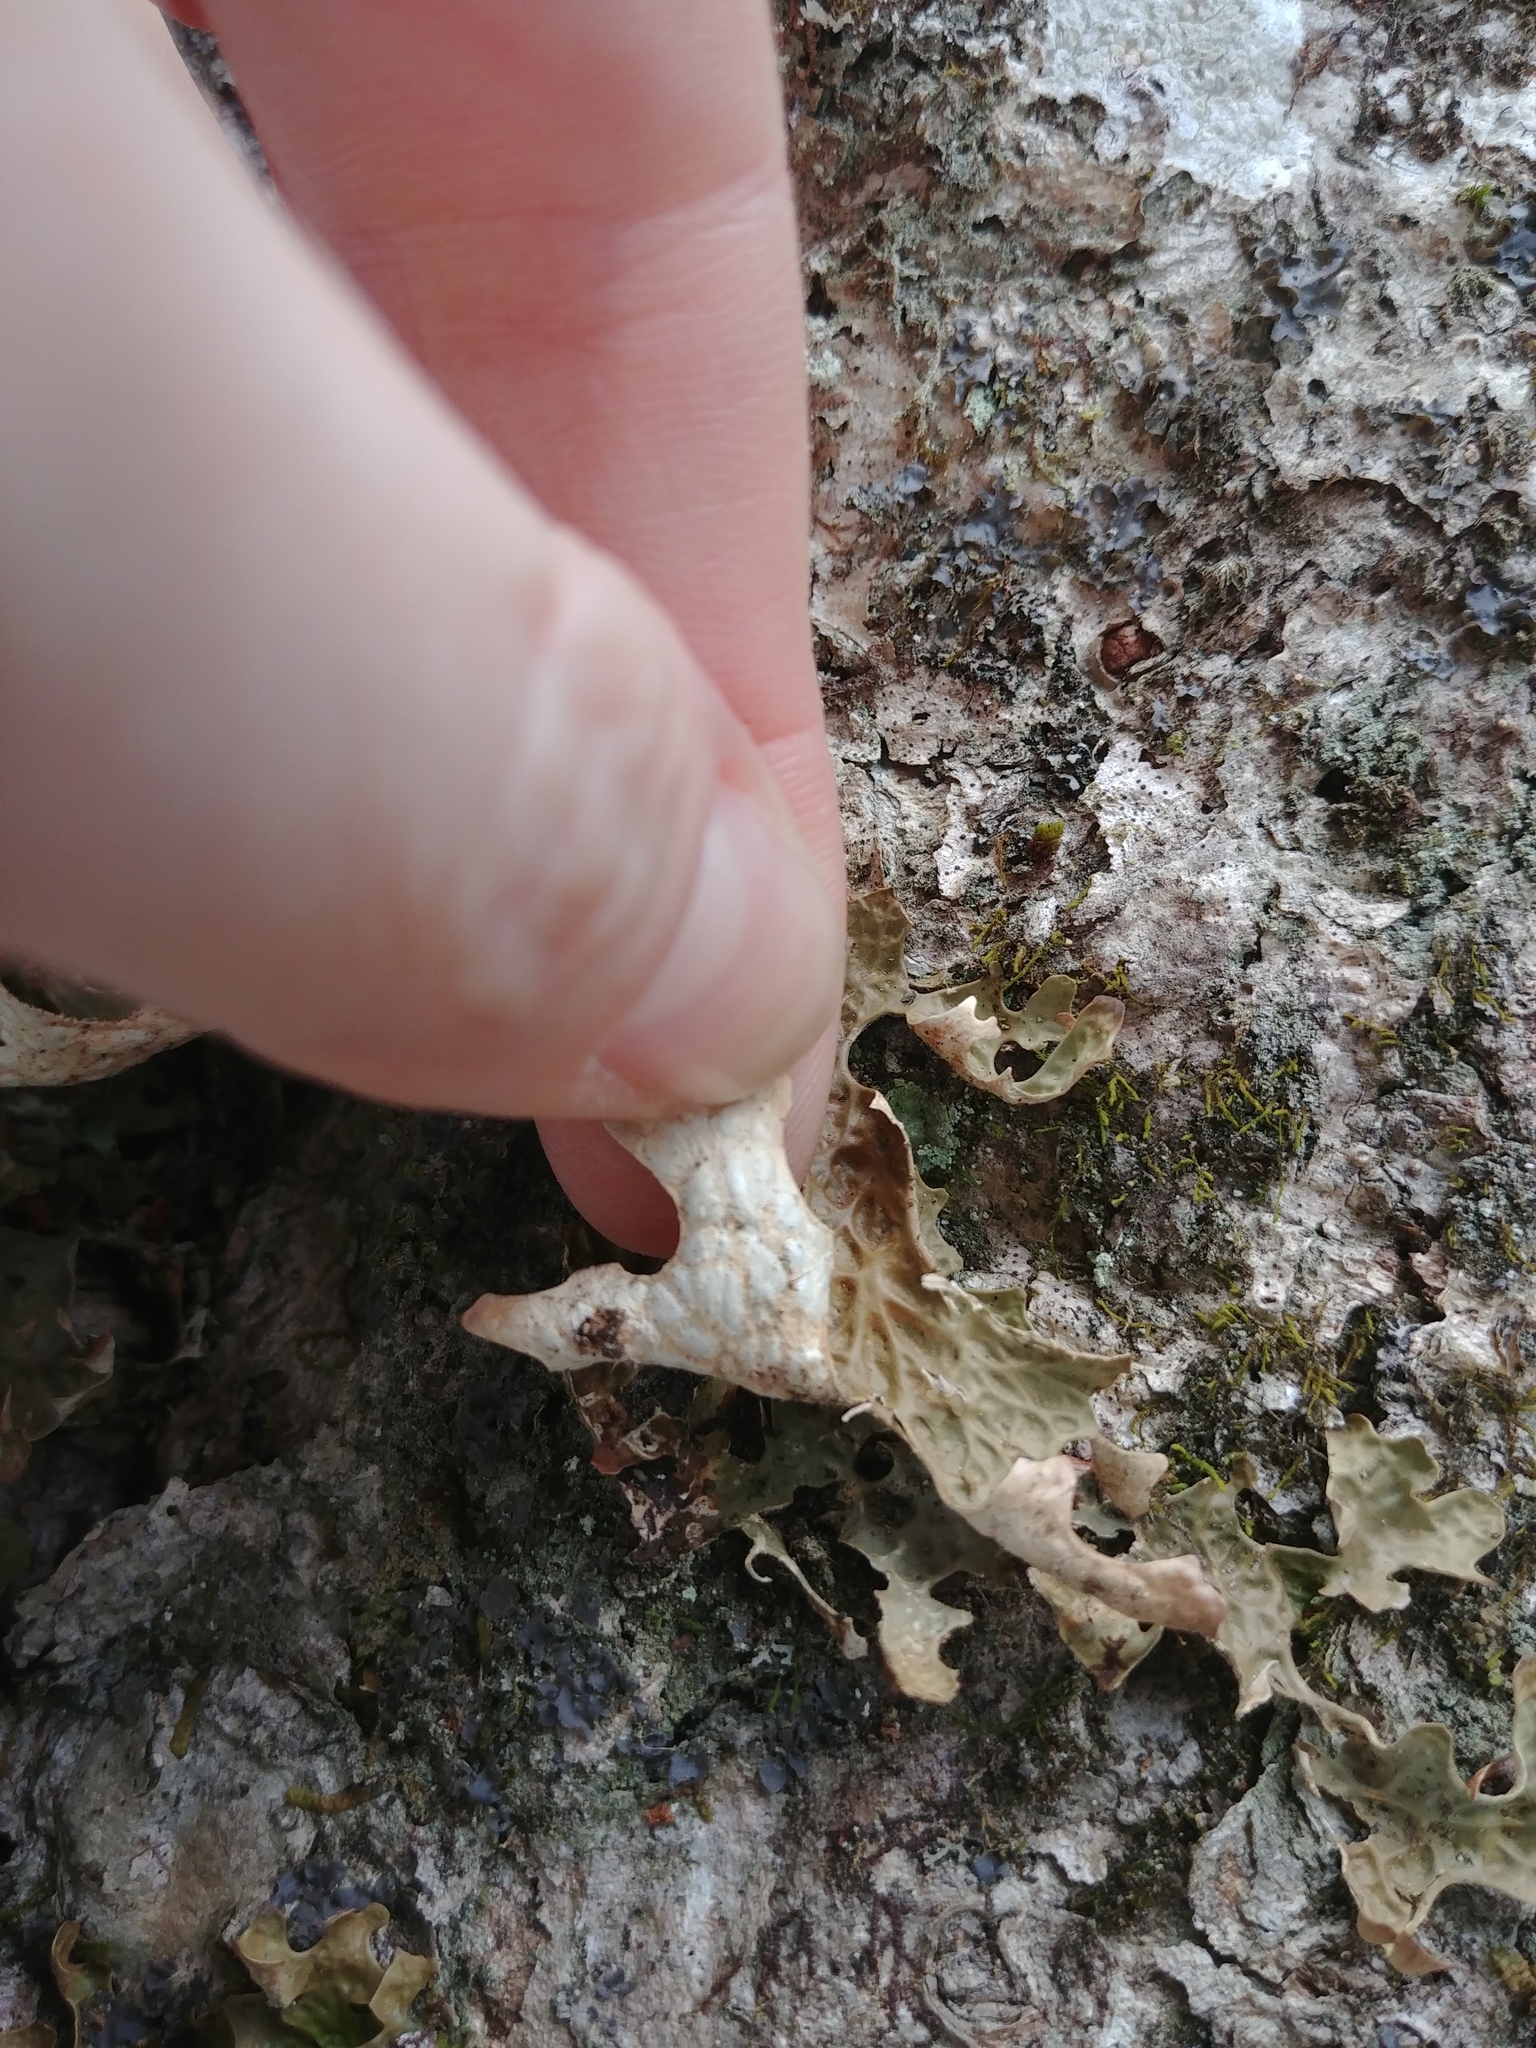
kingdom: Fungi
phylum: Ascomycota
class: Lecanoromycetes
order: Peltigerales
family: Lobariaceae
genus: Lobaria
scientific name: Lobaria pulmonaria
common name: Lungwort
